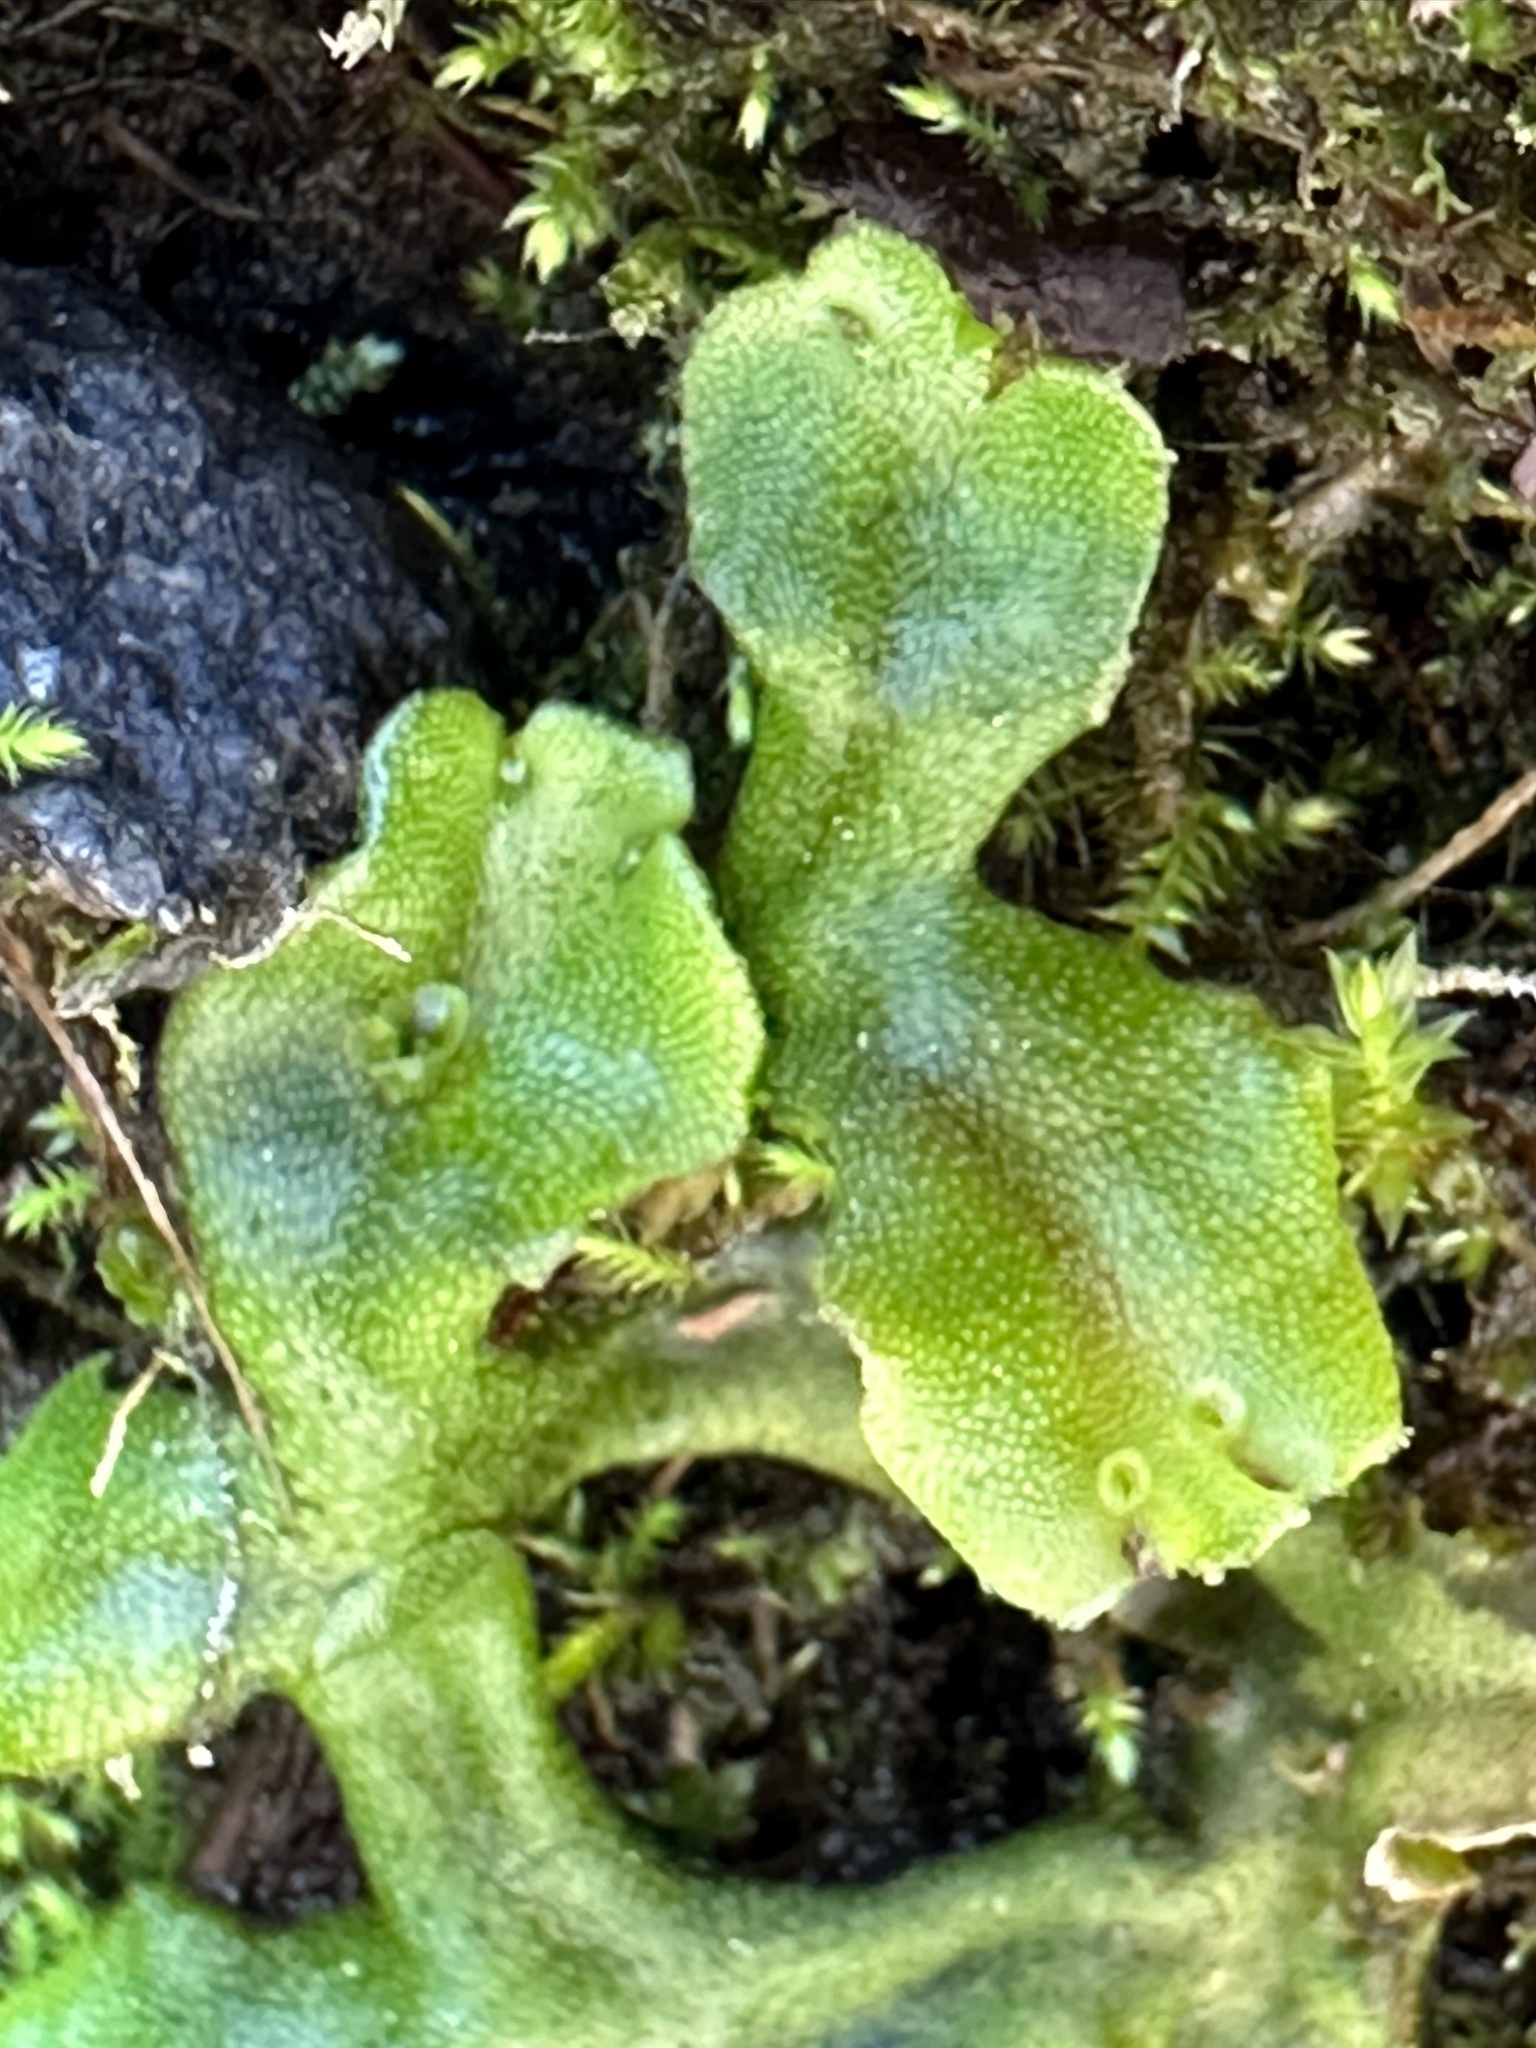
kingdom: Plantae
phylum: Marchantiophyta
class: Marchantiopsida
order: Marchantiales
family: Marchantiaceae
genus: Marchantia
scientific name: Marchantia polymorpha
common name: Common liverwort
